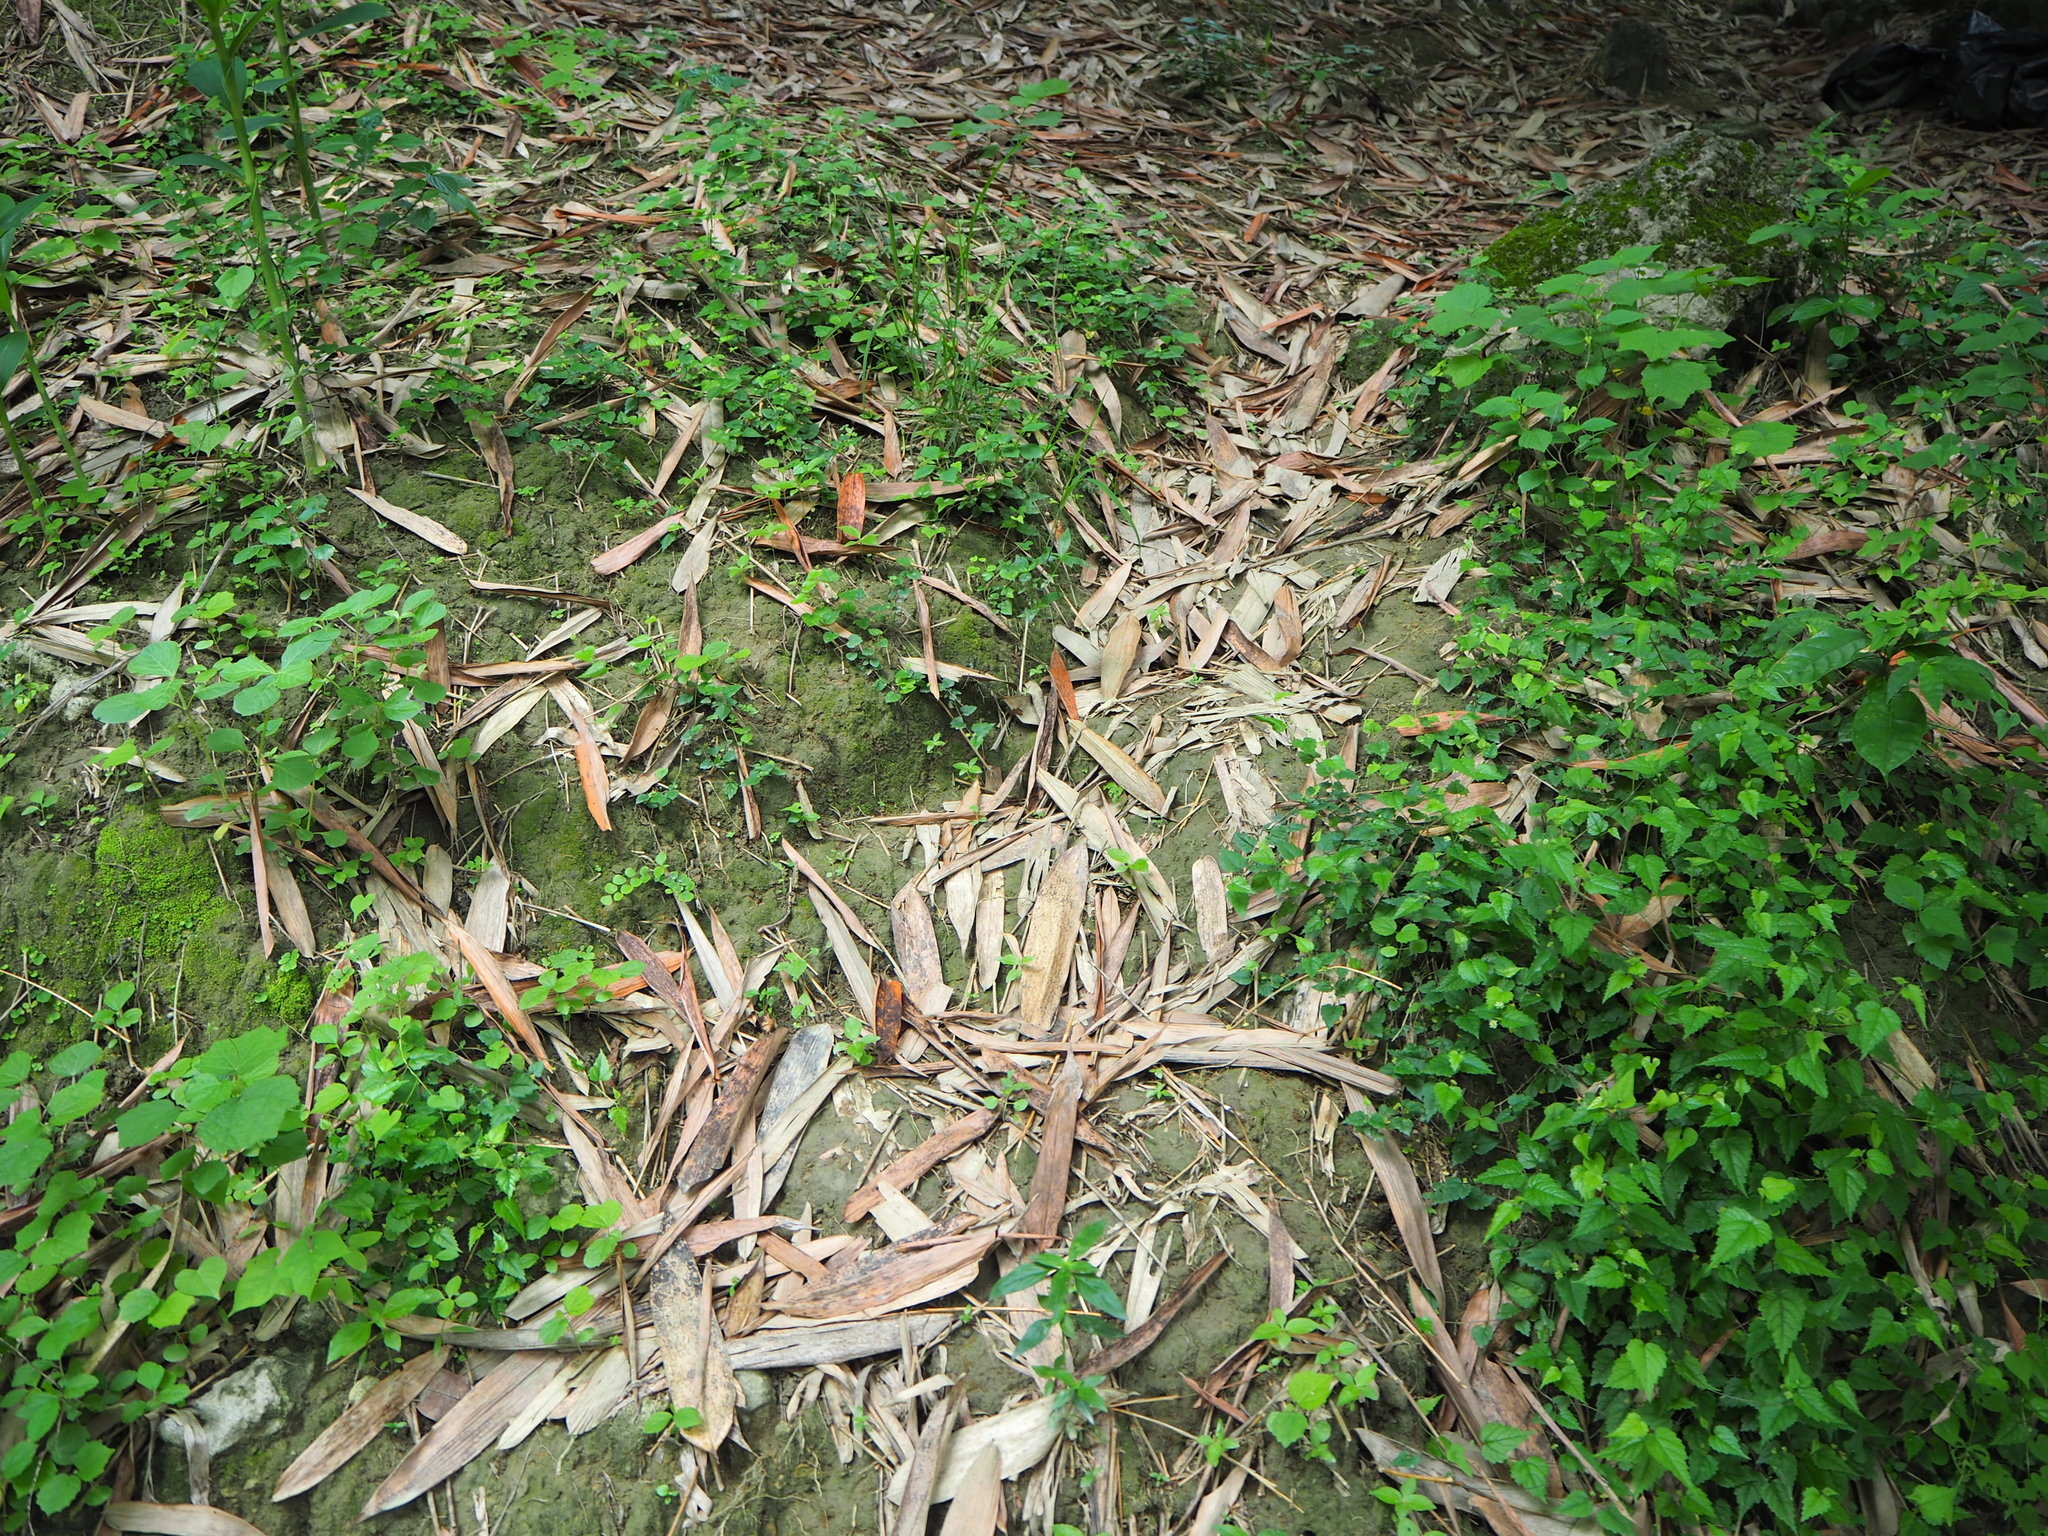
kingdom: Plantae
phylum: Tracheophyta
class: Magnoliopsida
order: Rosales
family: Moraceae
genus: Fatoua
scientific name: Fatoua villosa
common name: Hairy crabweed
